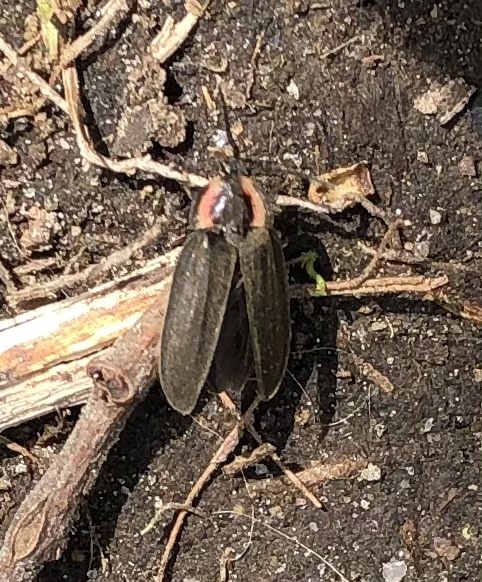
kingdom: Animalia
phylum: Arthropoda
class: Insecta
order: Coleoptera
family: Lampyridae
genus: Photinus
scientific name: Photinus corrusca
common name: Winter firefly
